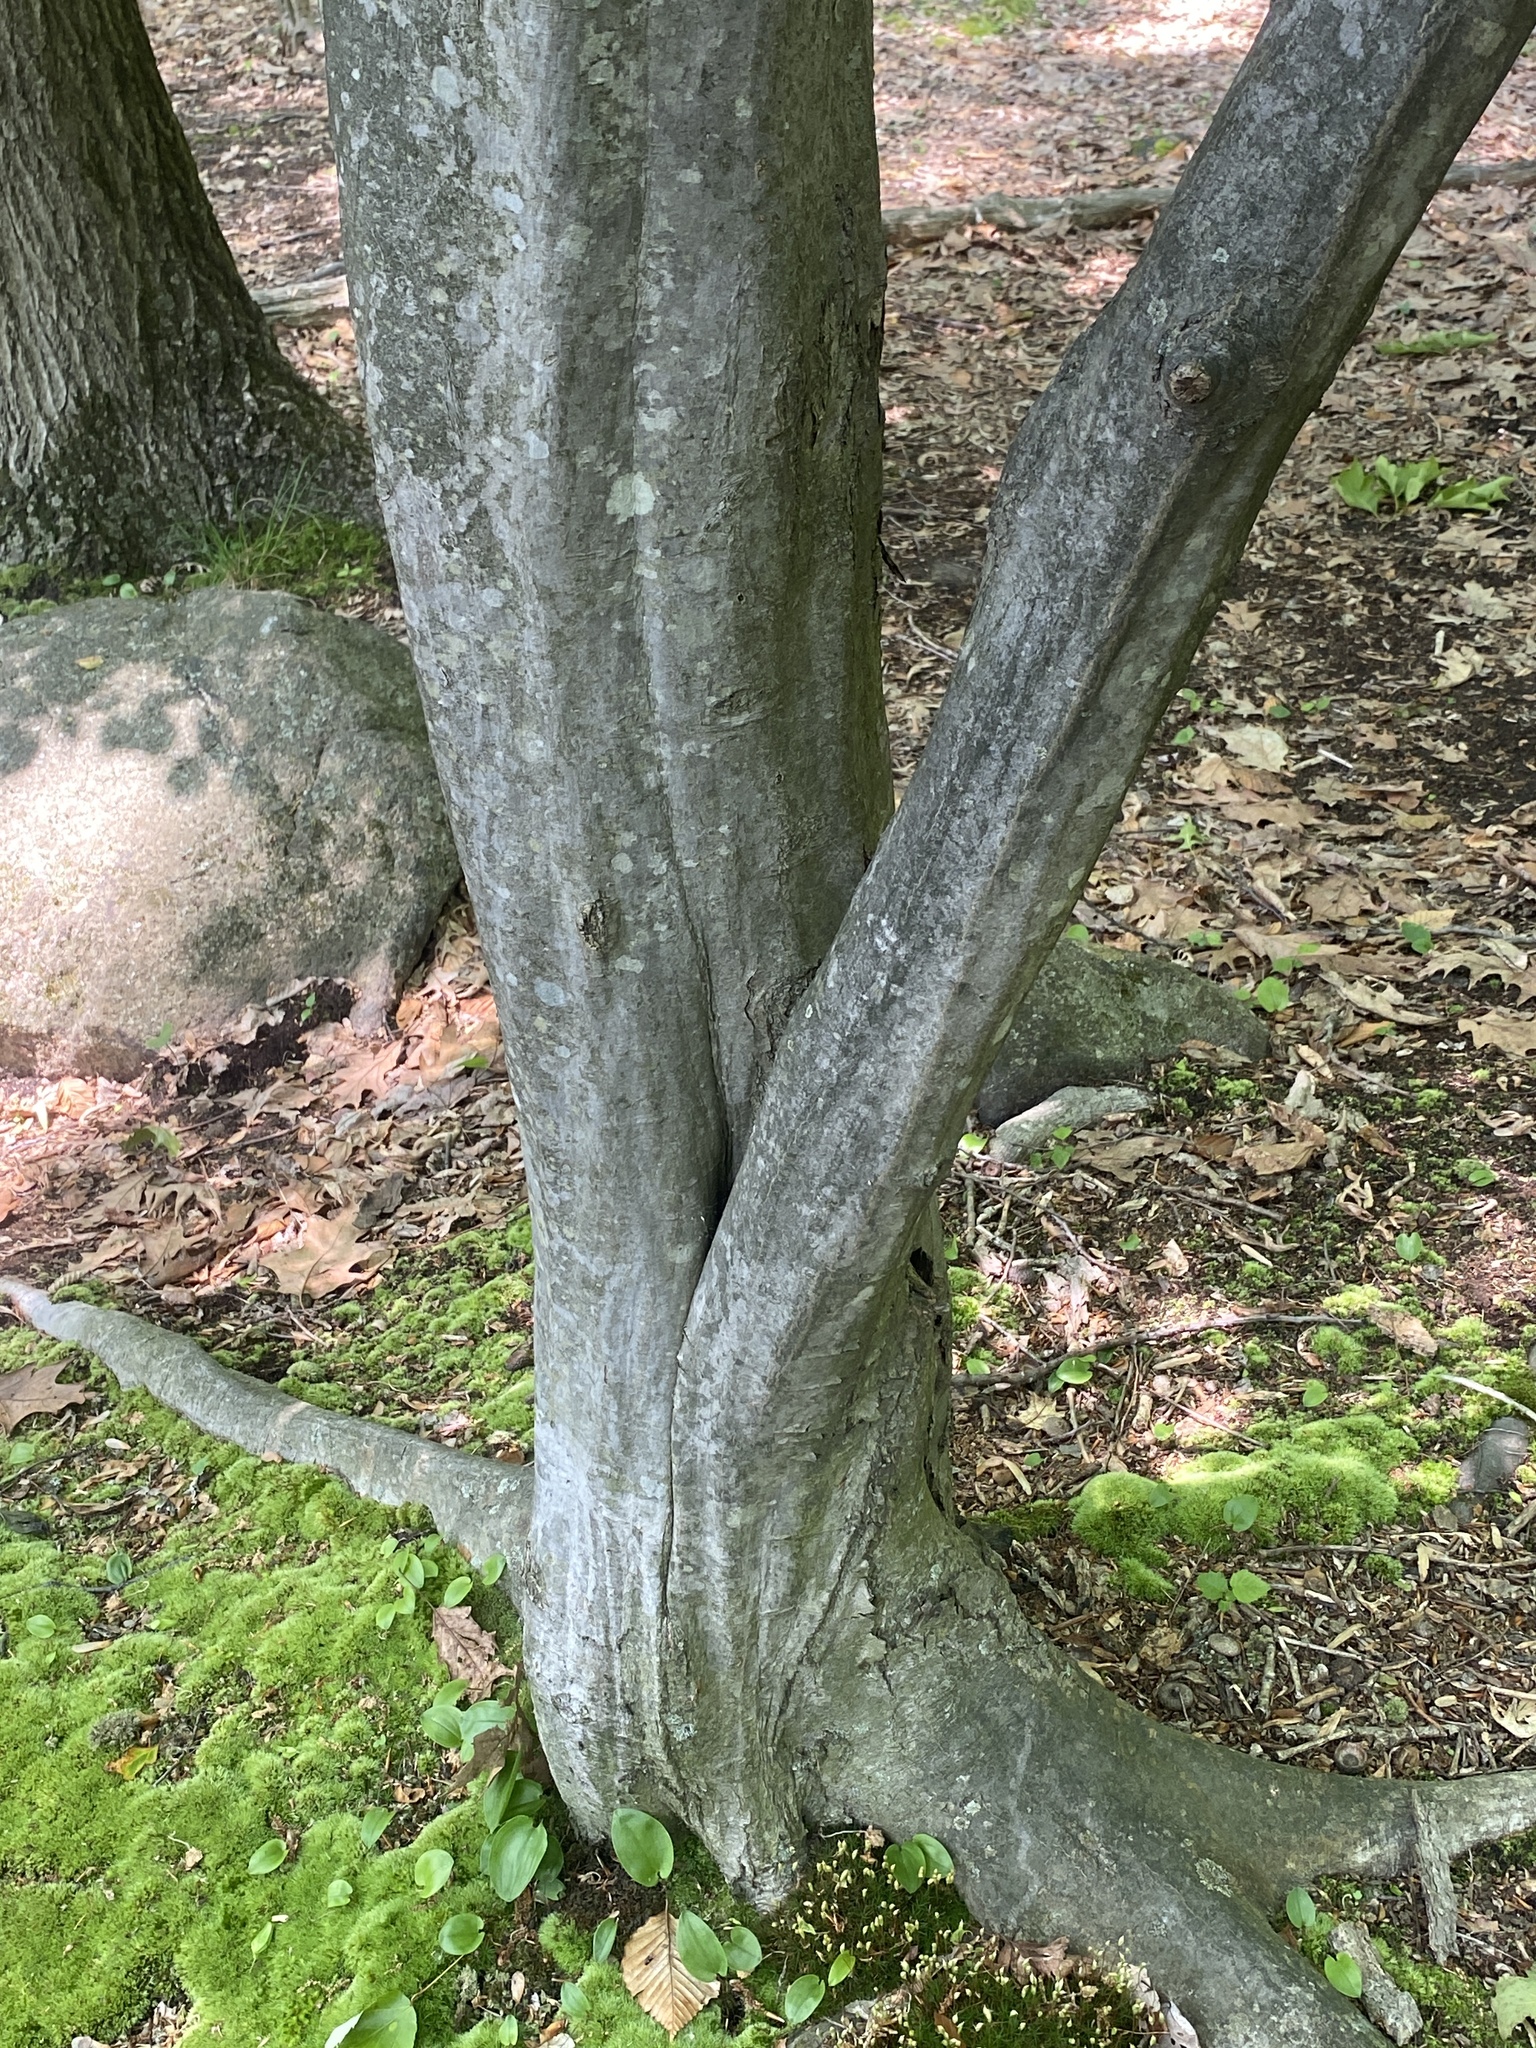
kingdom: Plantae
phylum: Tracheophyta
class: Magnoliopsida
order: Fagales
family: Betulaceae
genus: Carpinus
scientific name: Carpinus caroliniana
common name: American hornbeam
